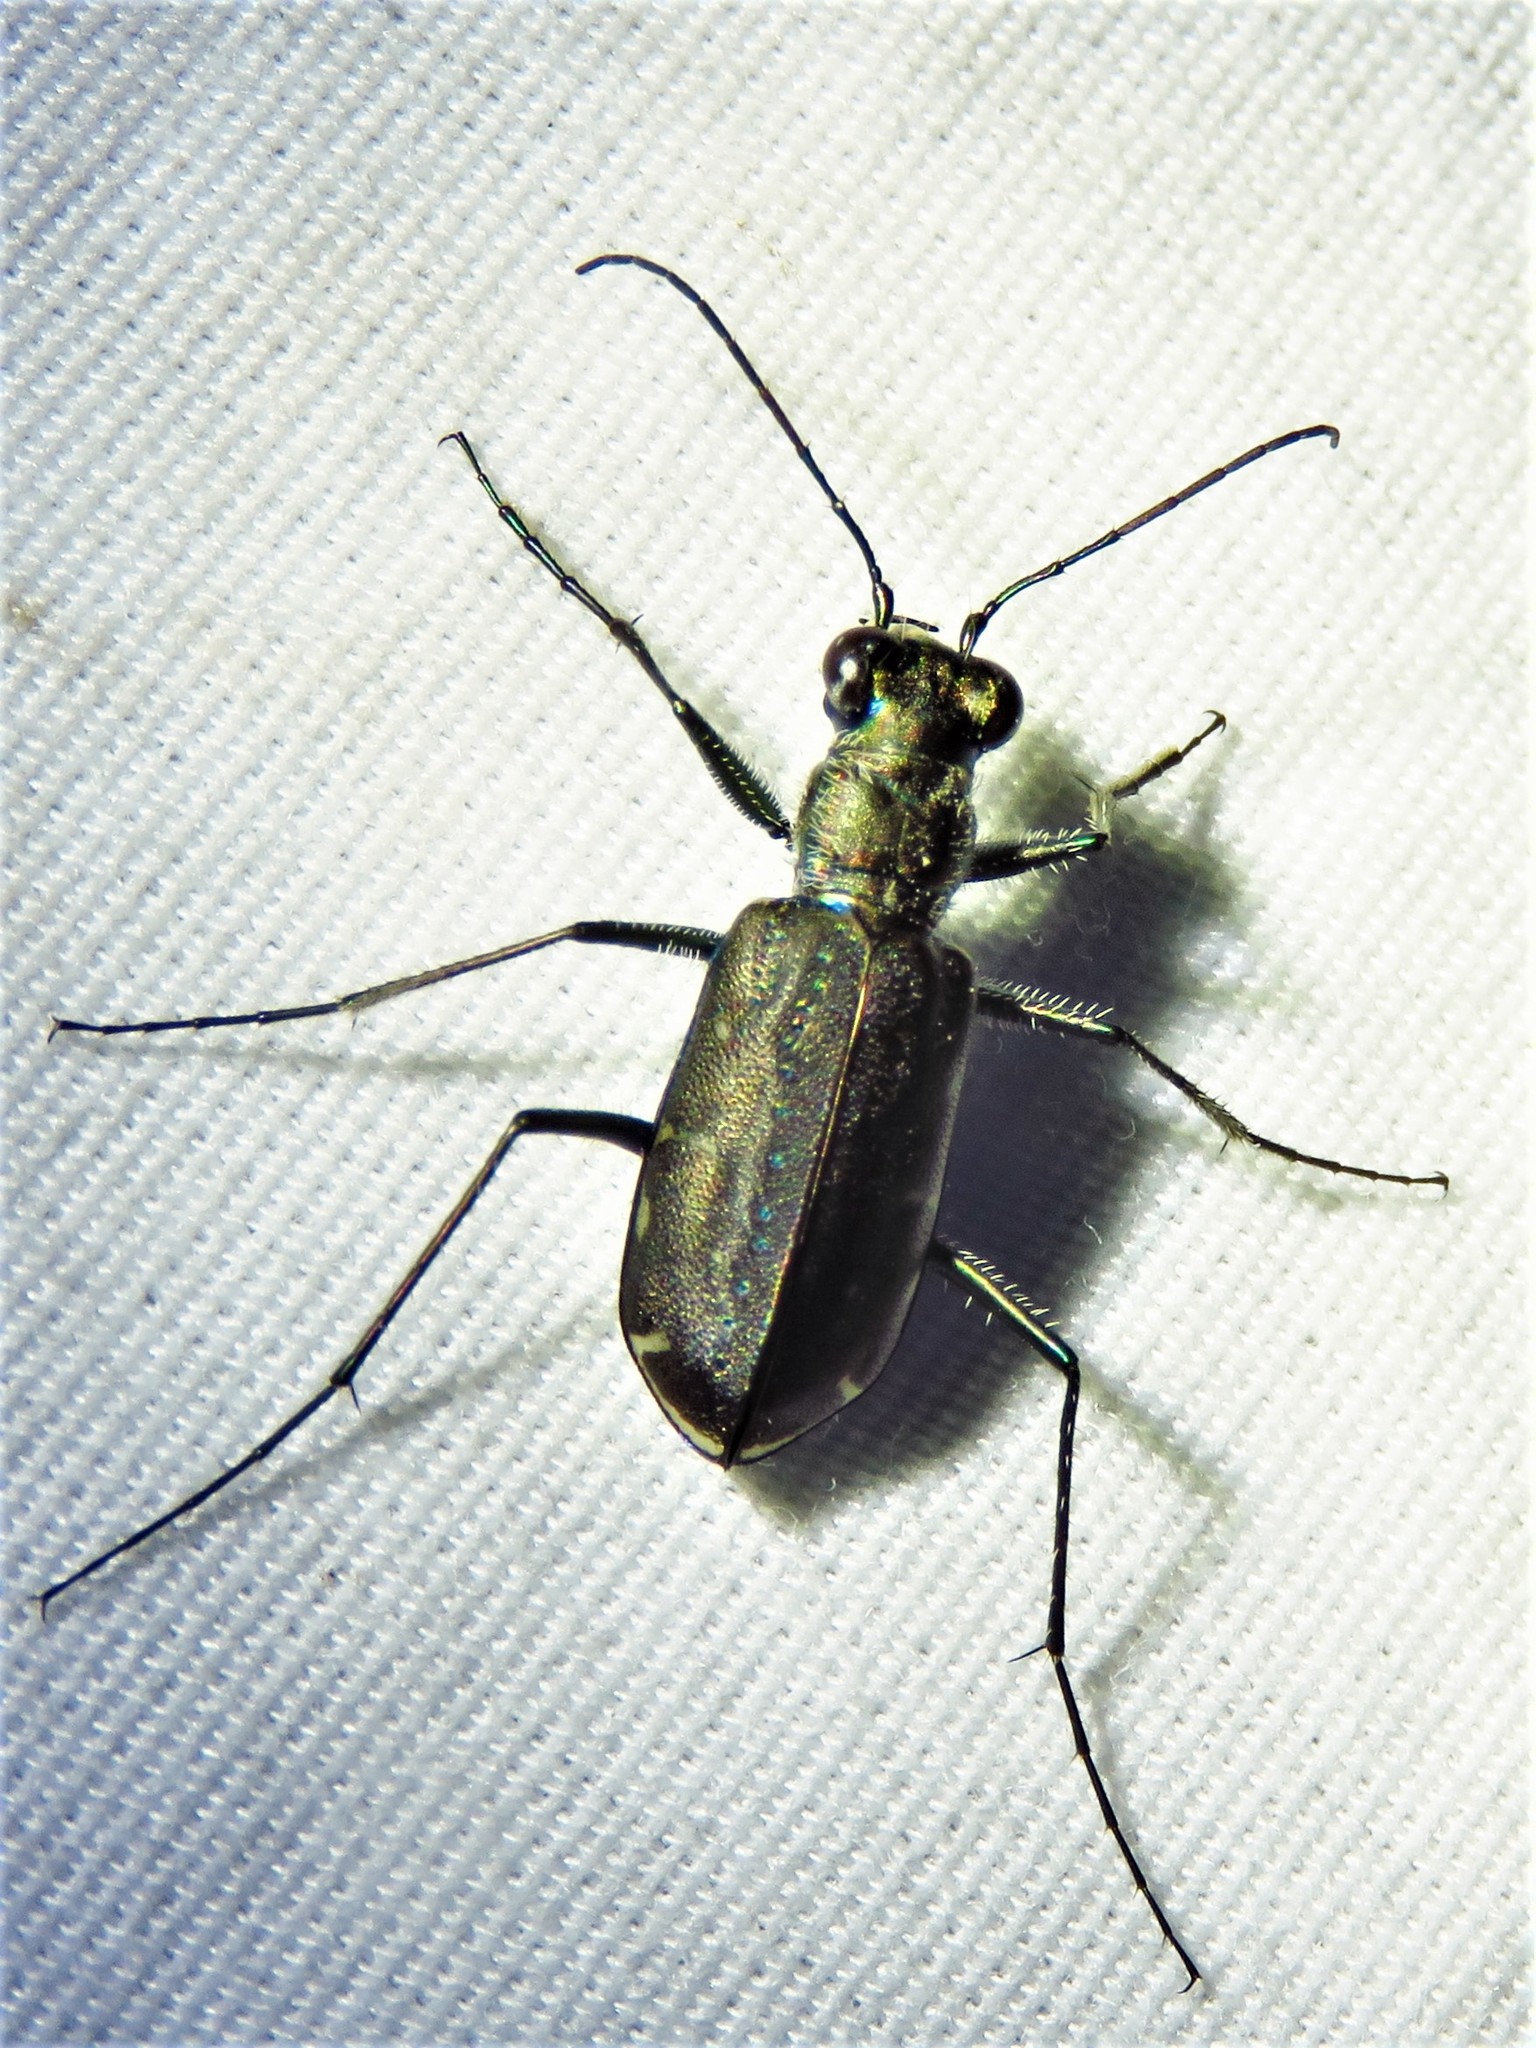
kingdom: Animalia
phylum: Arthropoda
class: Insecta
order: Coleoptera
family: Carabidae
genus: Cicindela
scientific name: Cicindela punctulata
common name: Punctured tiger beetle
